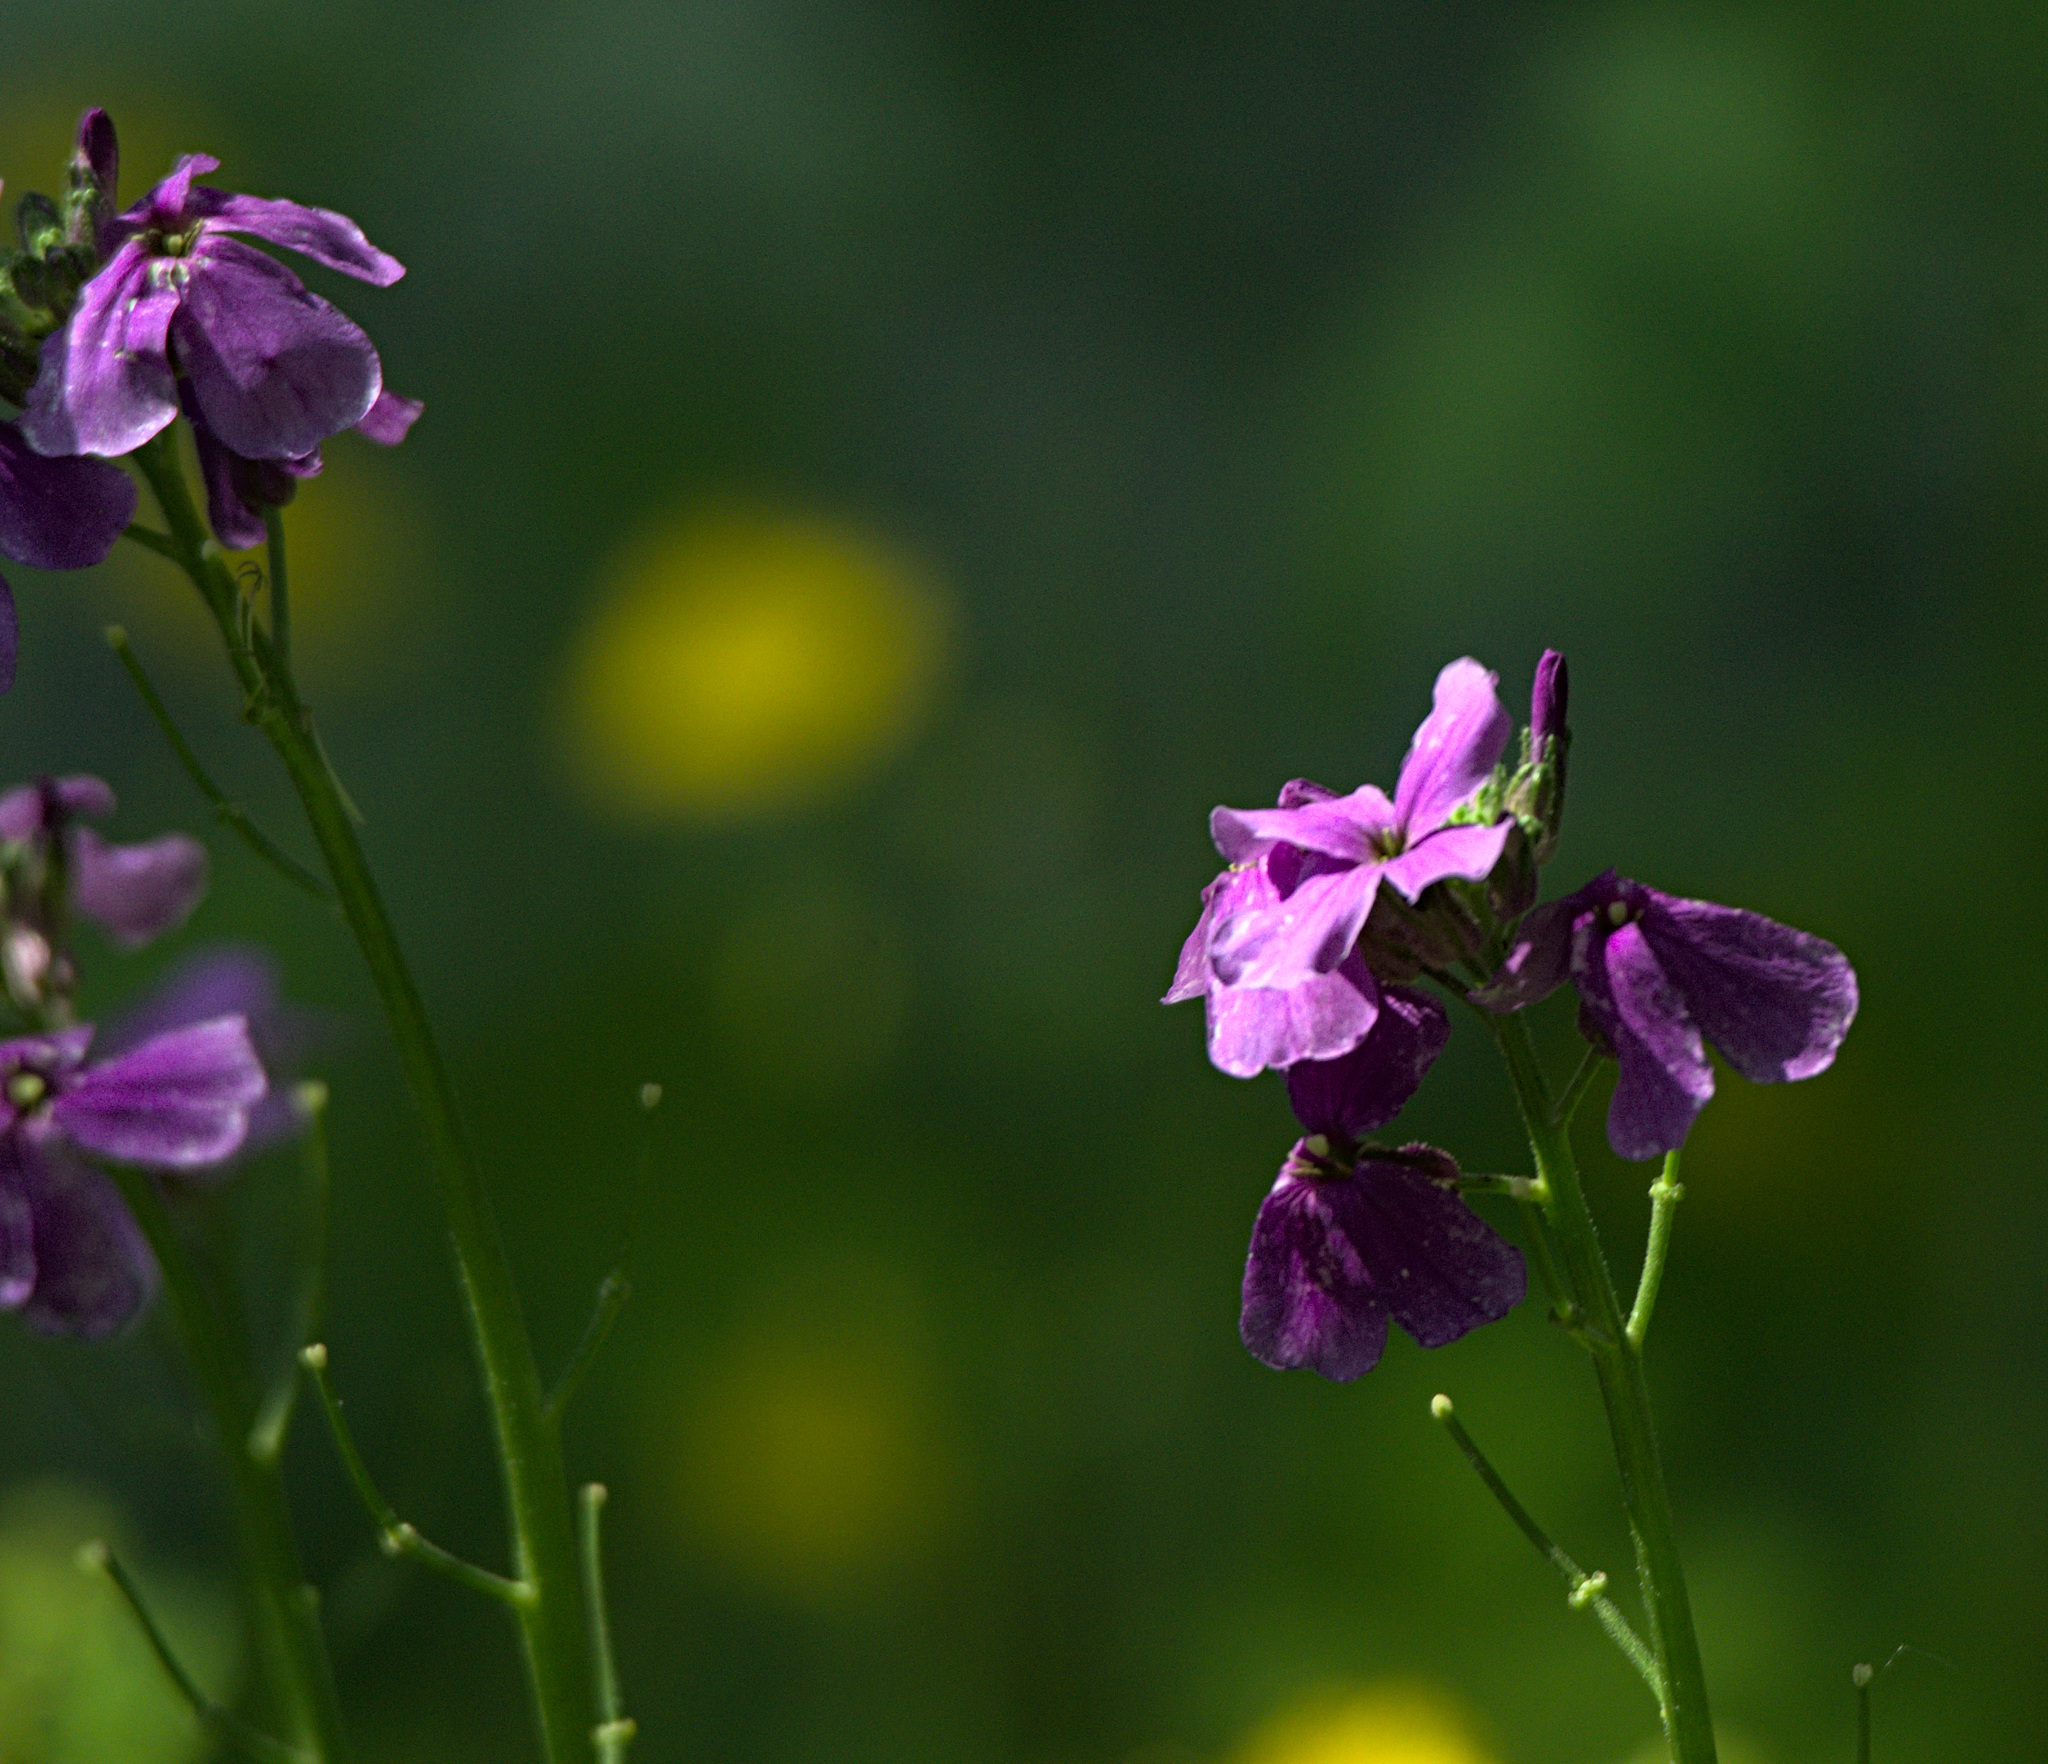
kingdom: Plantae
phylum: Tracheophyta
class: Magnoliopsida
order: Brassicales
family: Brassicaceae
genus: Hesperis
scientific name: Hesperis sibirica
